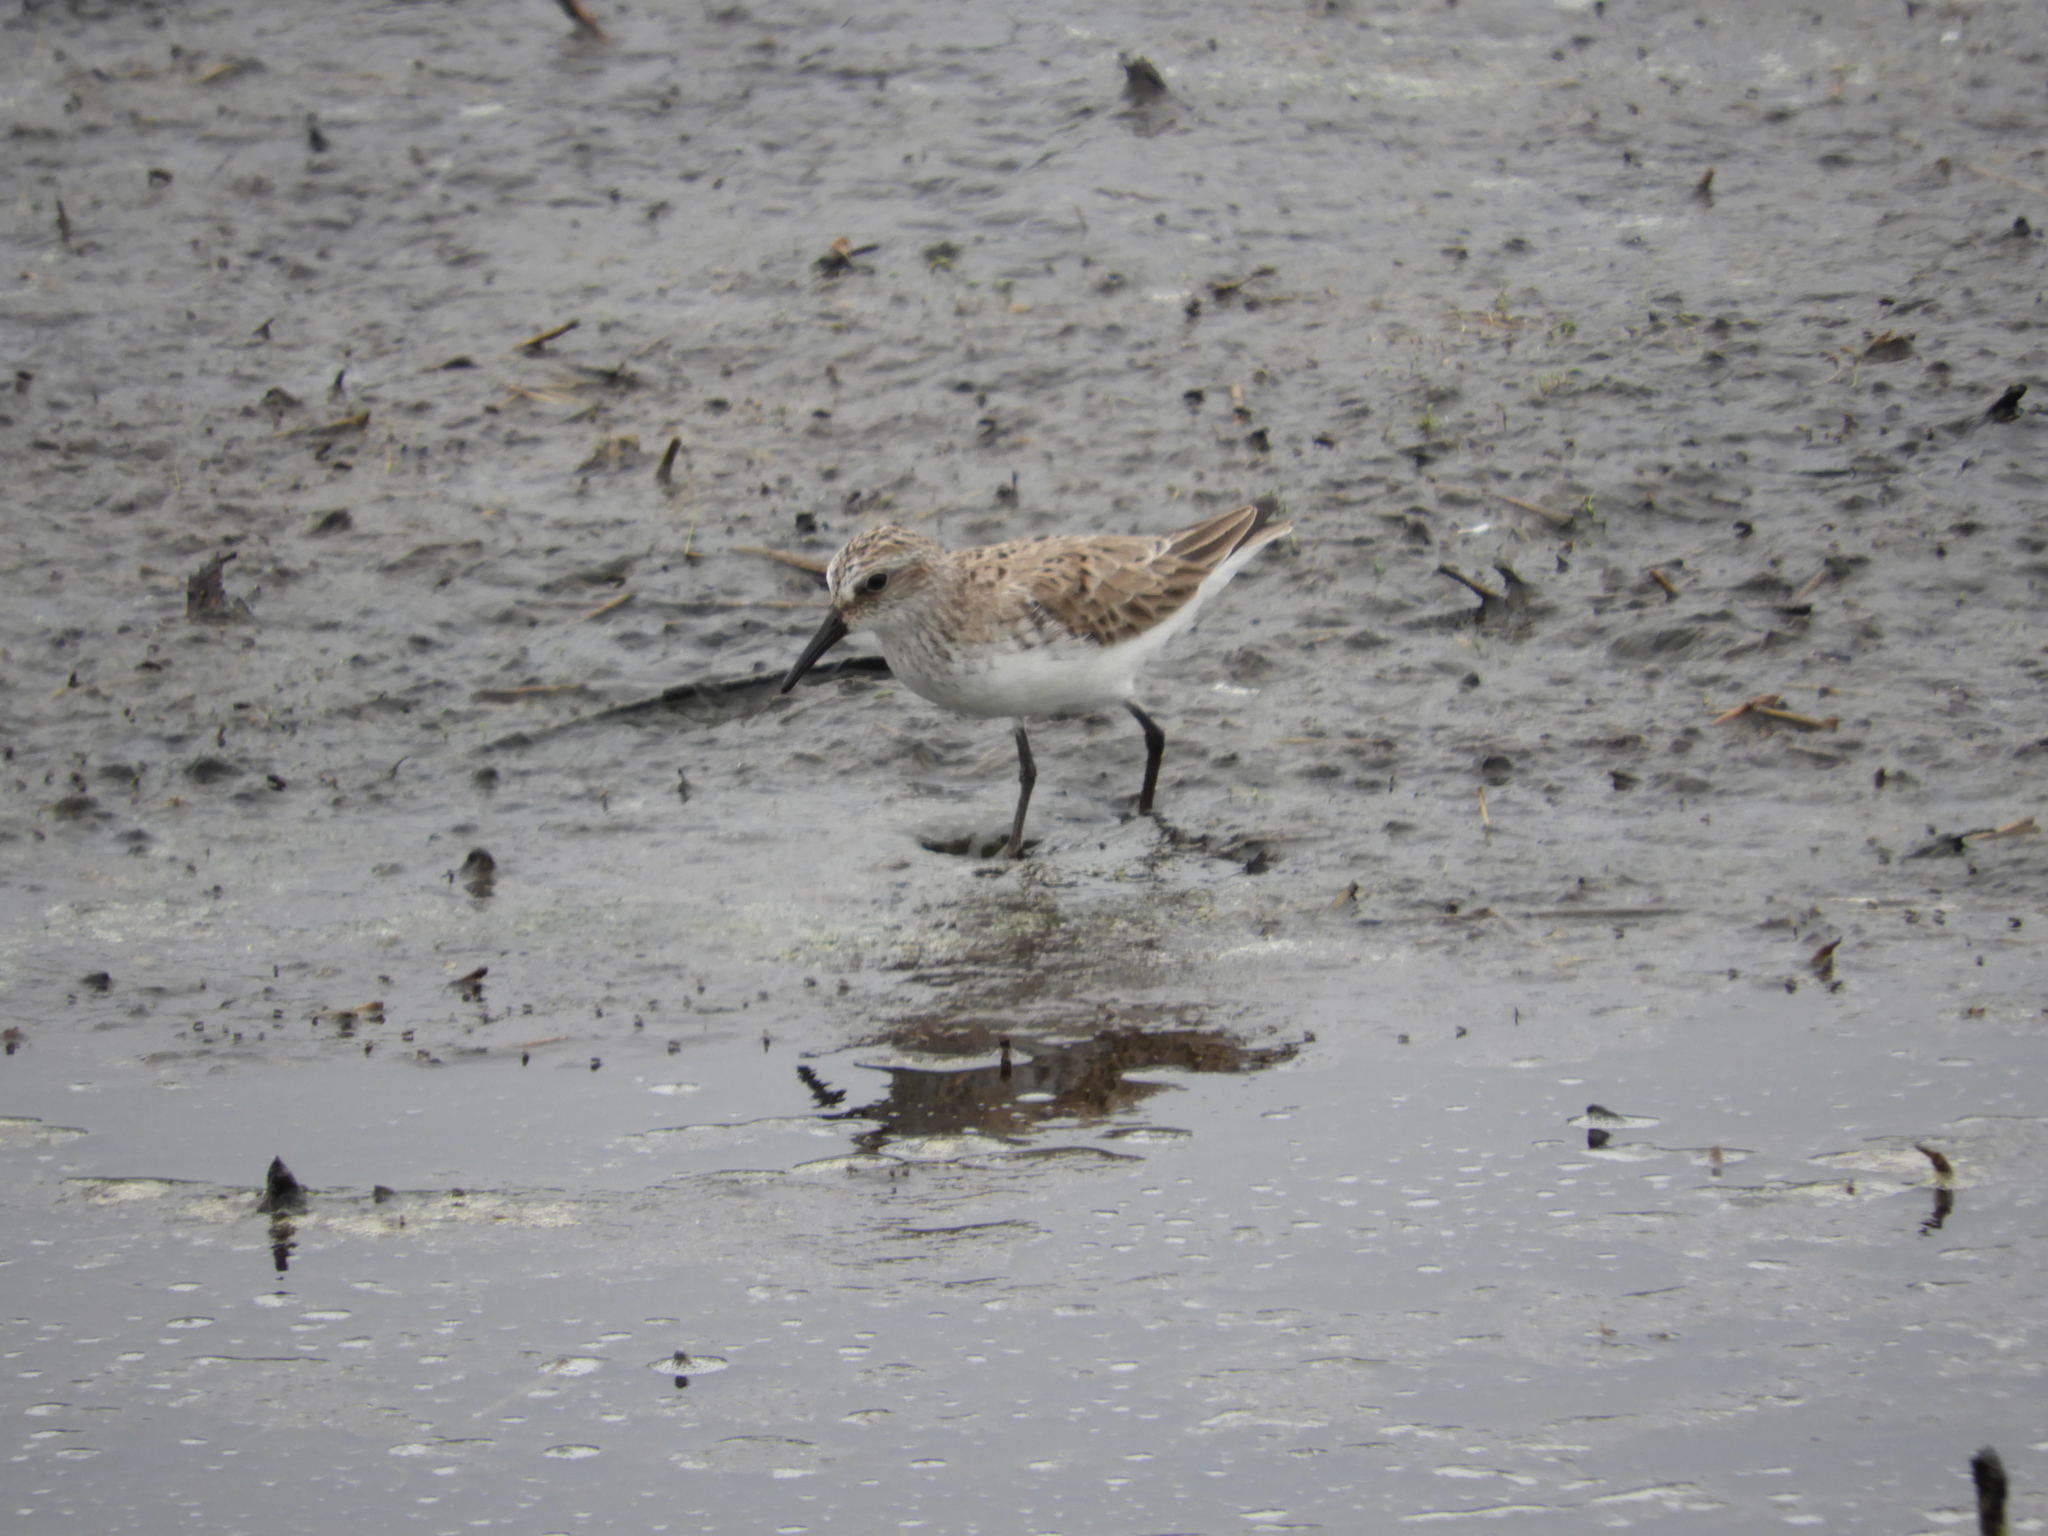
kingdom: Animalia
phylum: Chordata
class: Aves
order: Charadriiformes
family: Scolopacidae
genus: Calidris
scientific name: Calidris pusilla
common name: Semipalmated sandpiper
